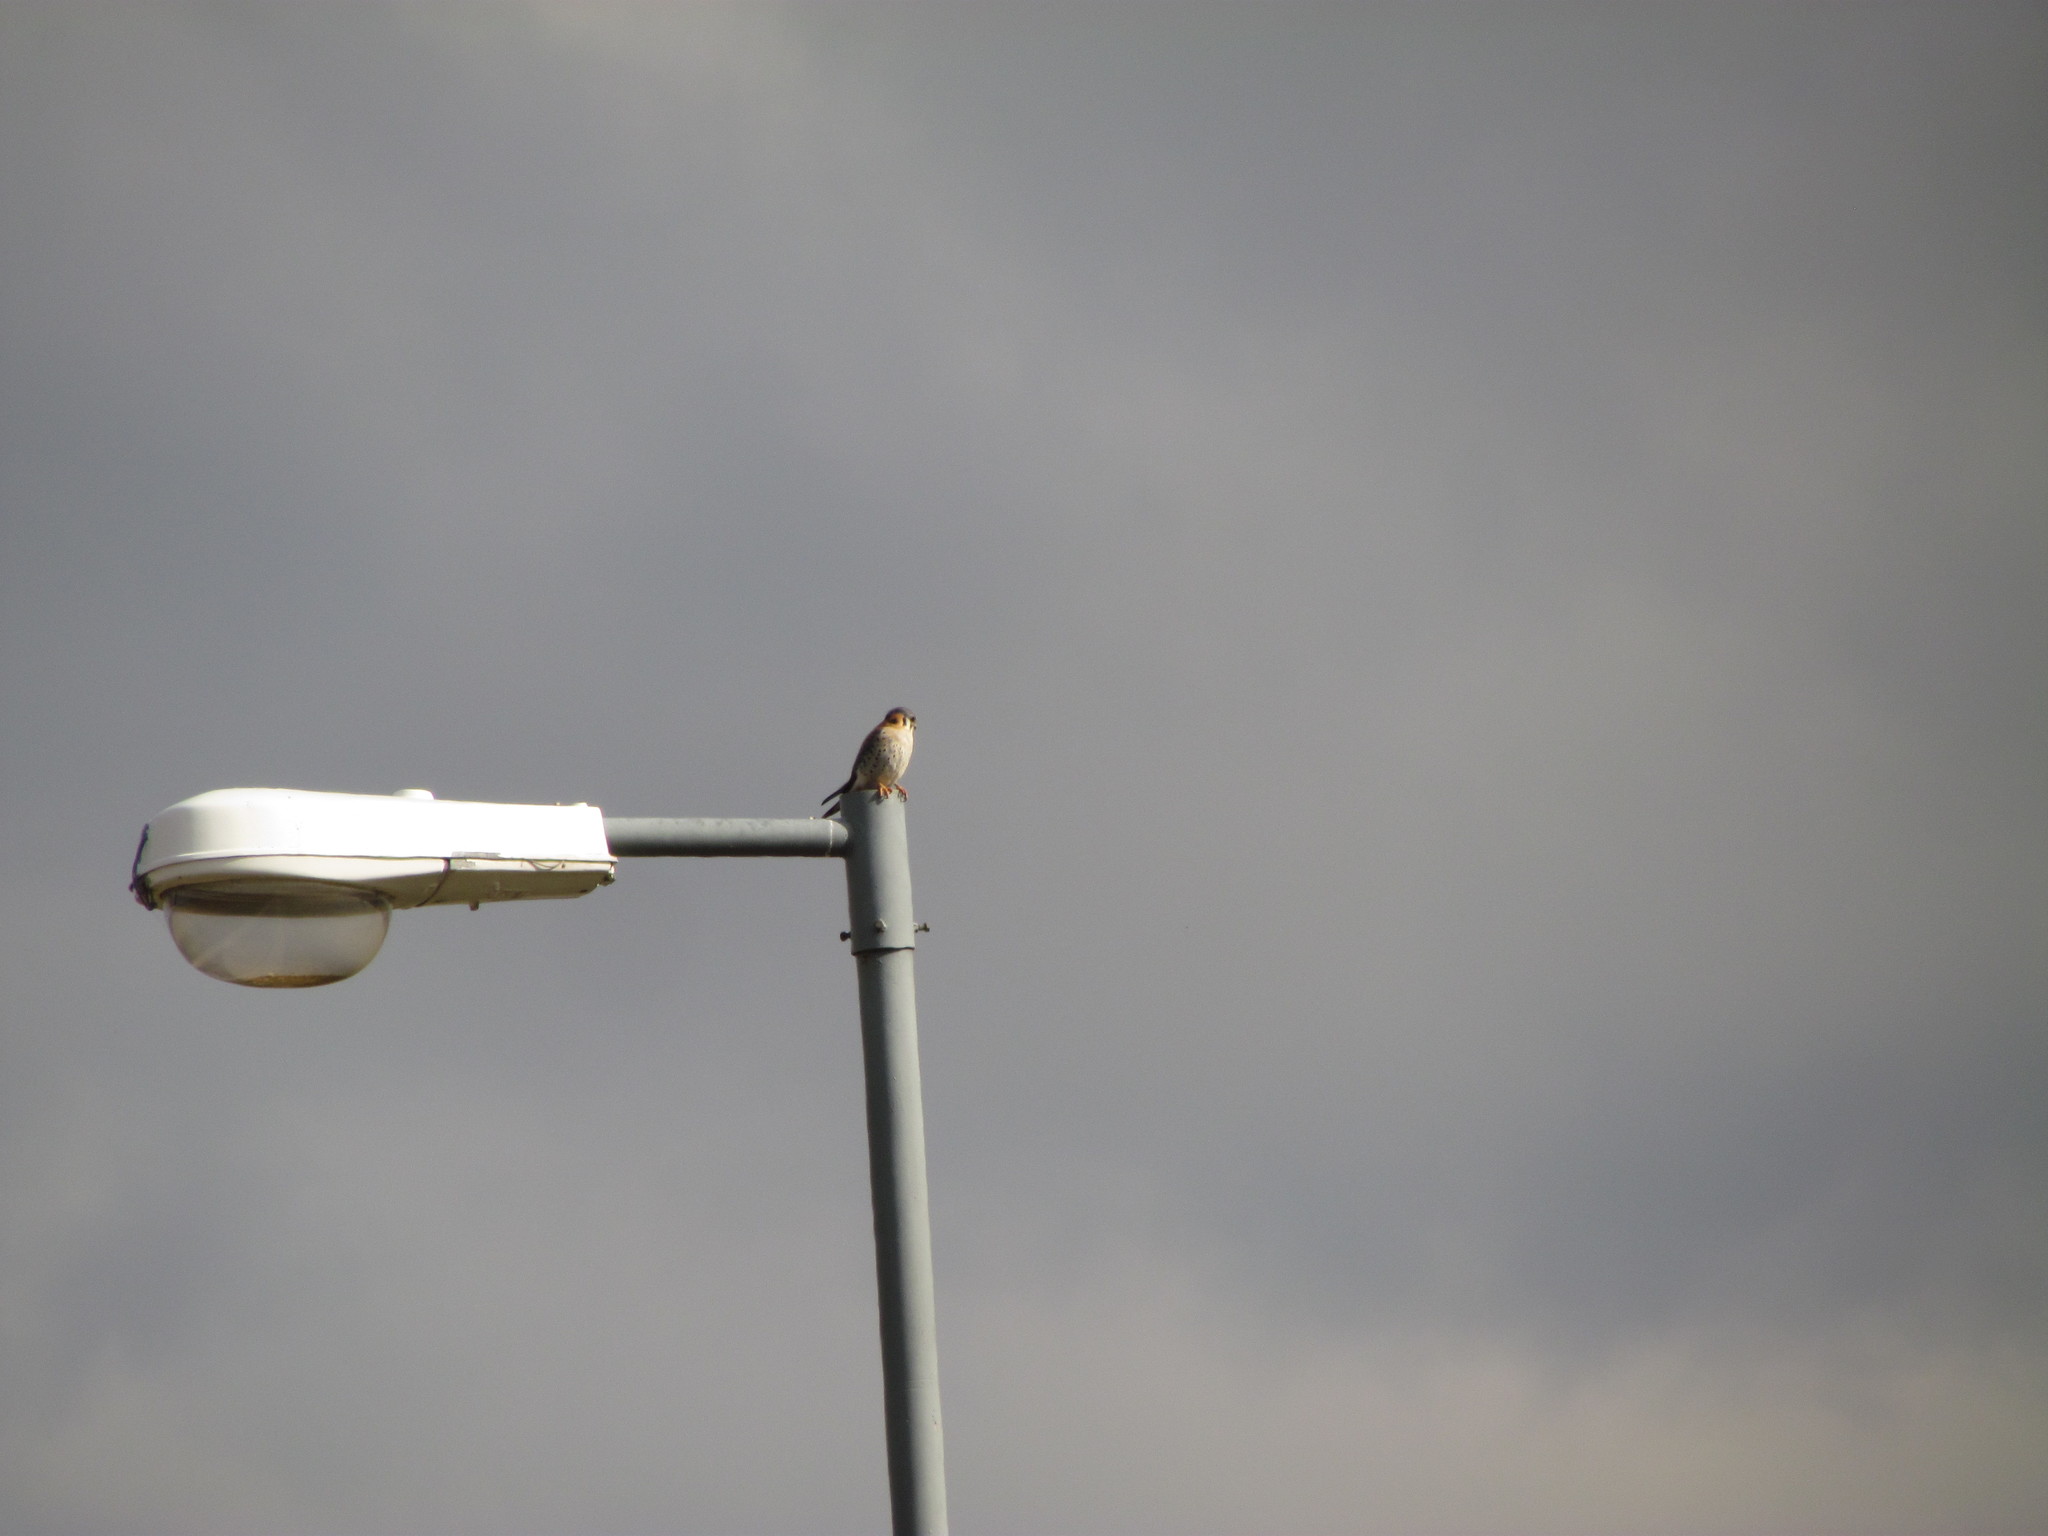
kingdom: Animalia
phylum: Chordata
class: Aves
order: Falconiformes
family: Falconidae
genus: Falco
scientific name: Falco sparverius
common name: American kestrel
